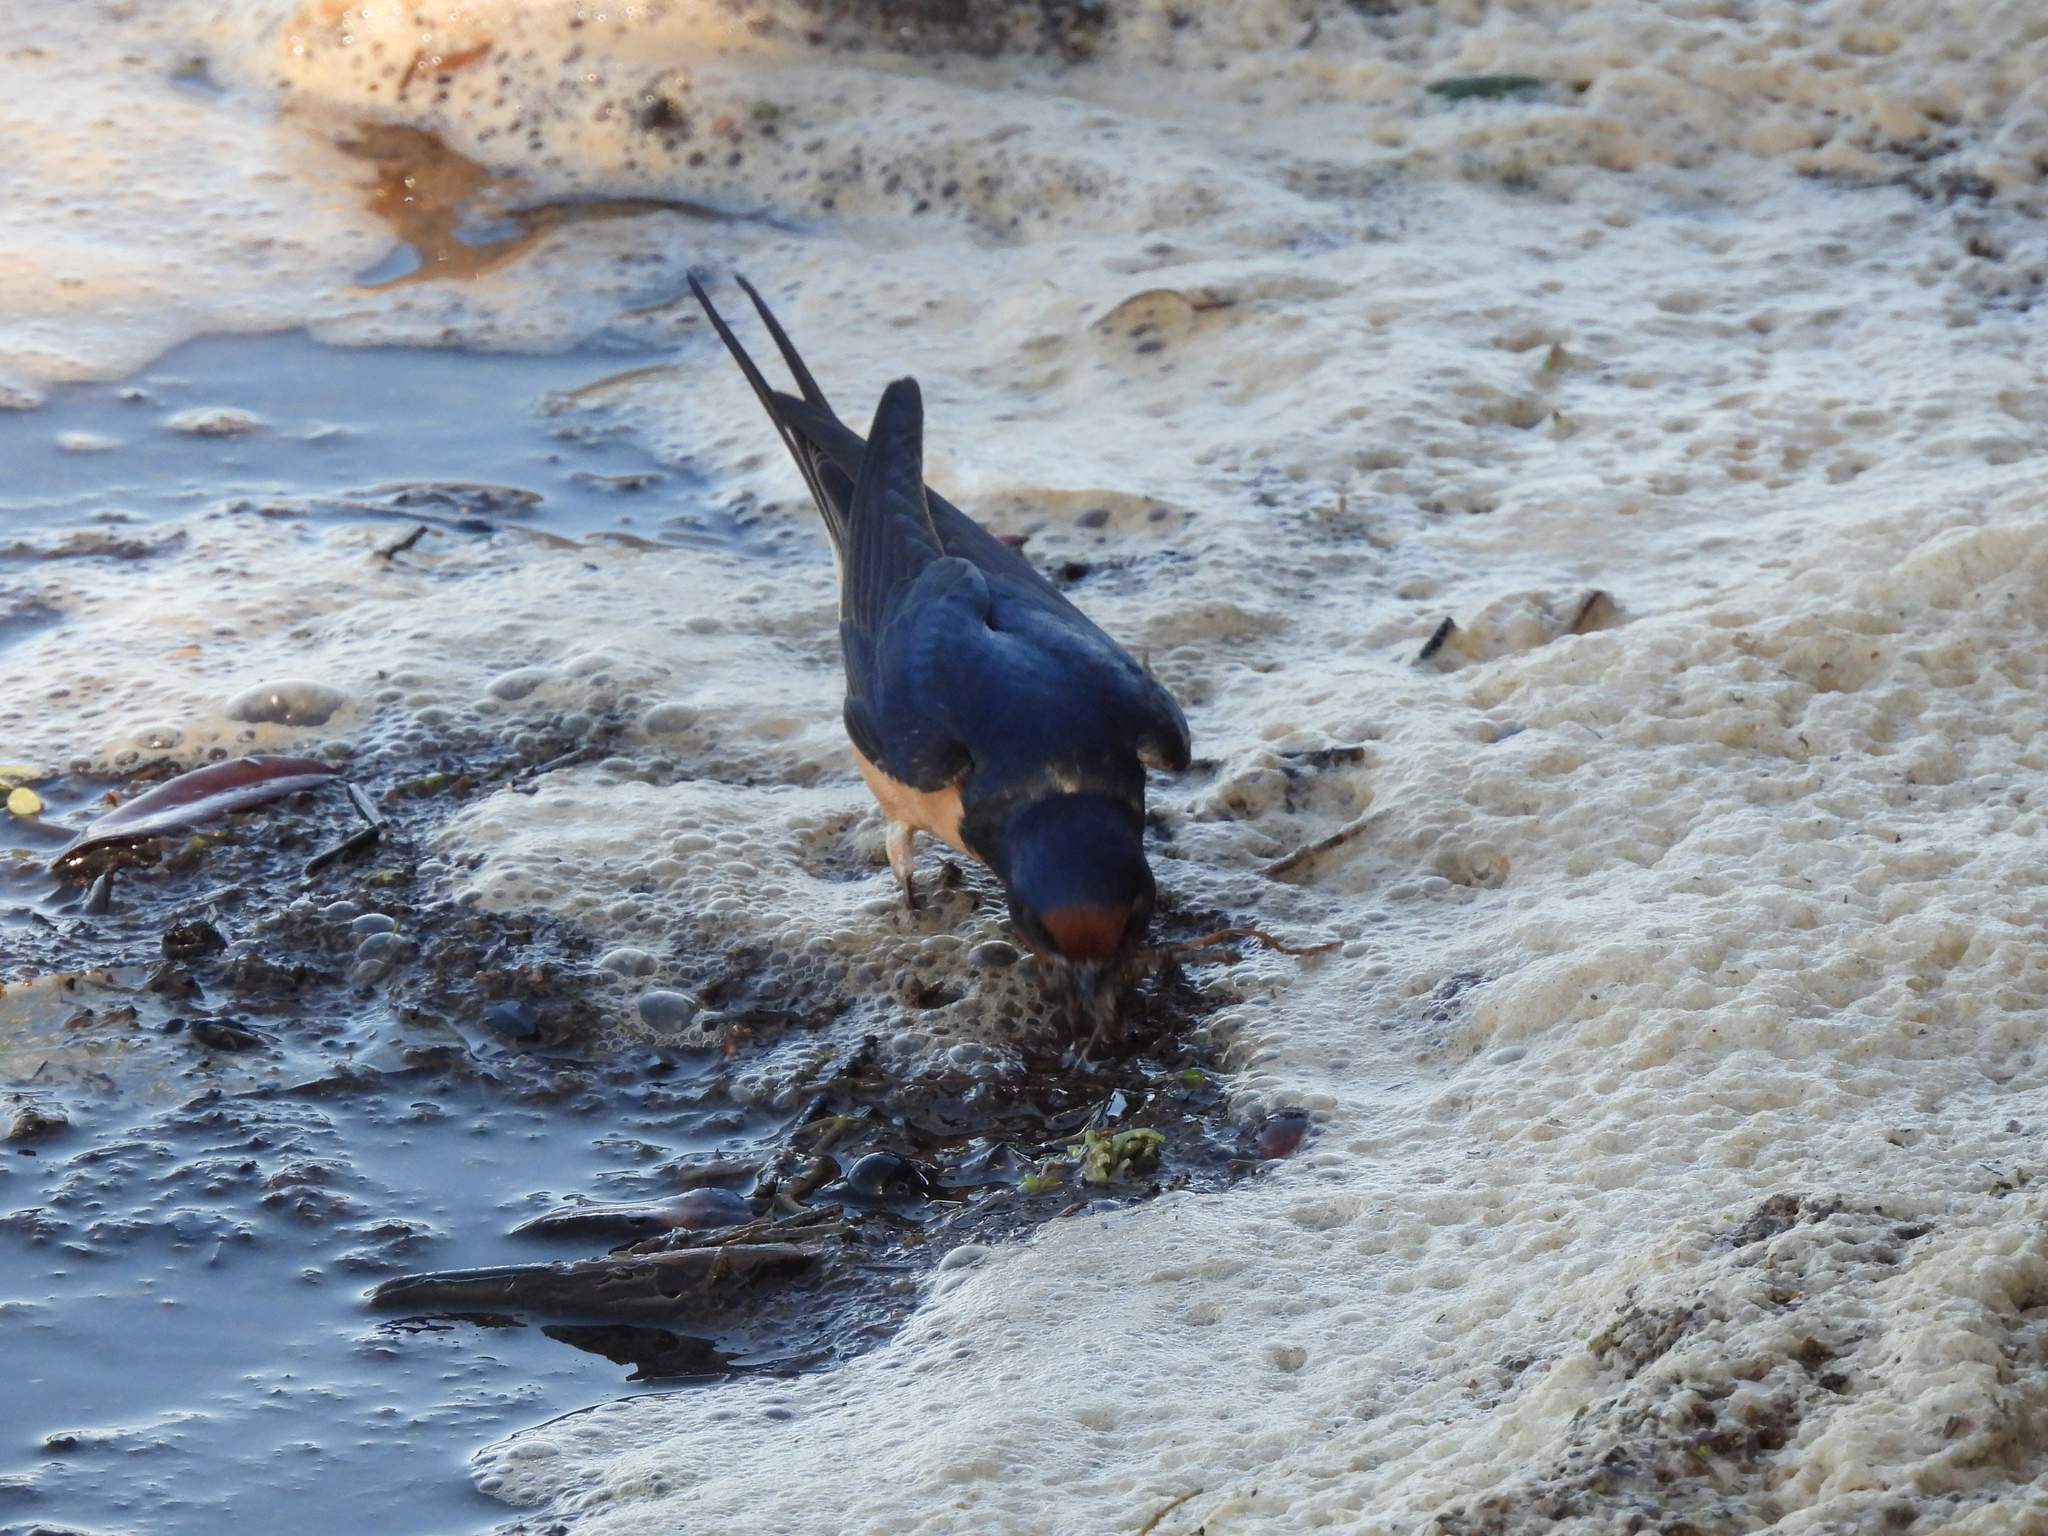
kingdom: Animalia
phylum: Chordata
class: Aves
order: Passeriformes
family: Hirundinidae
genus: Hirundo
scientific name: Hirundo rustica
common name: Barn swallow
